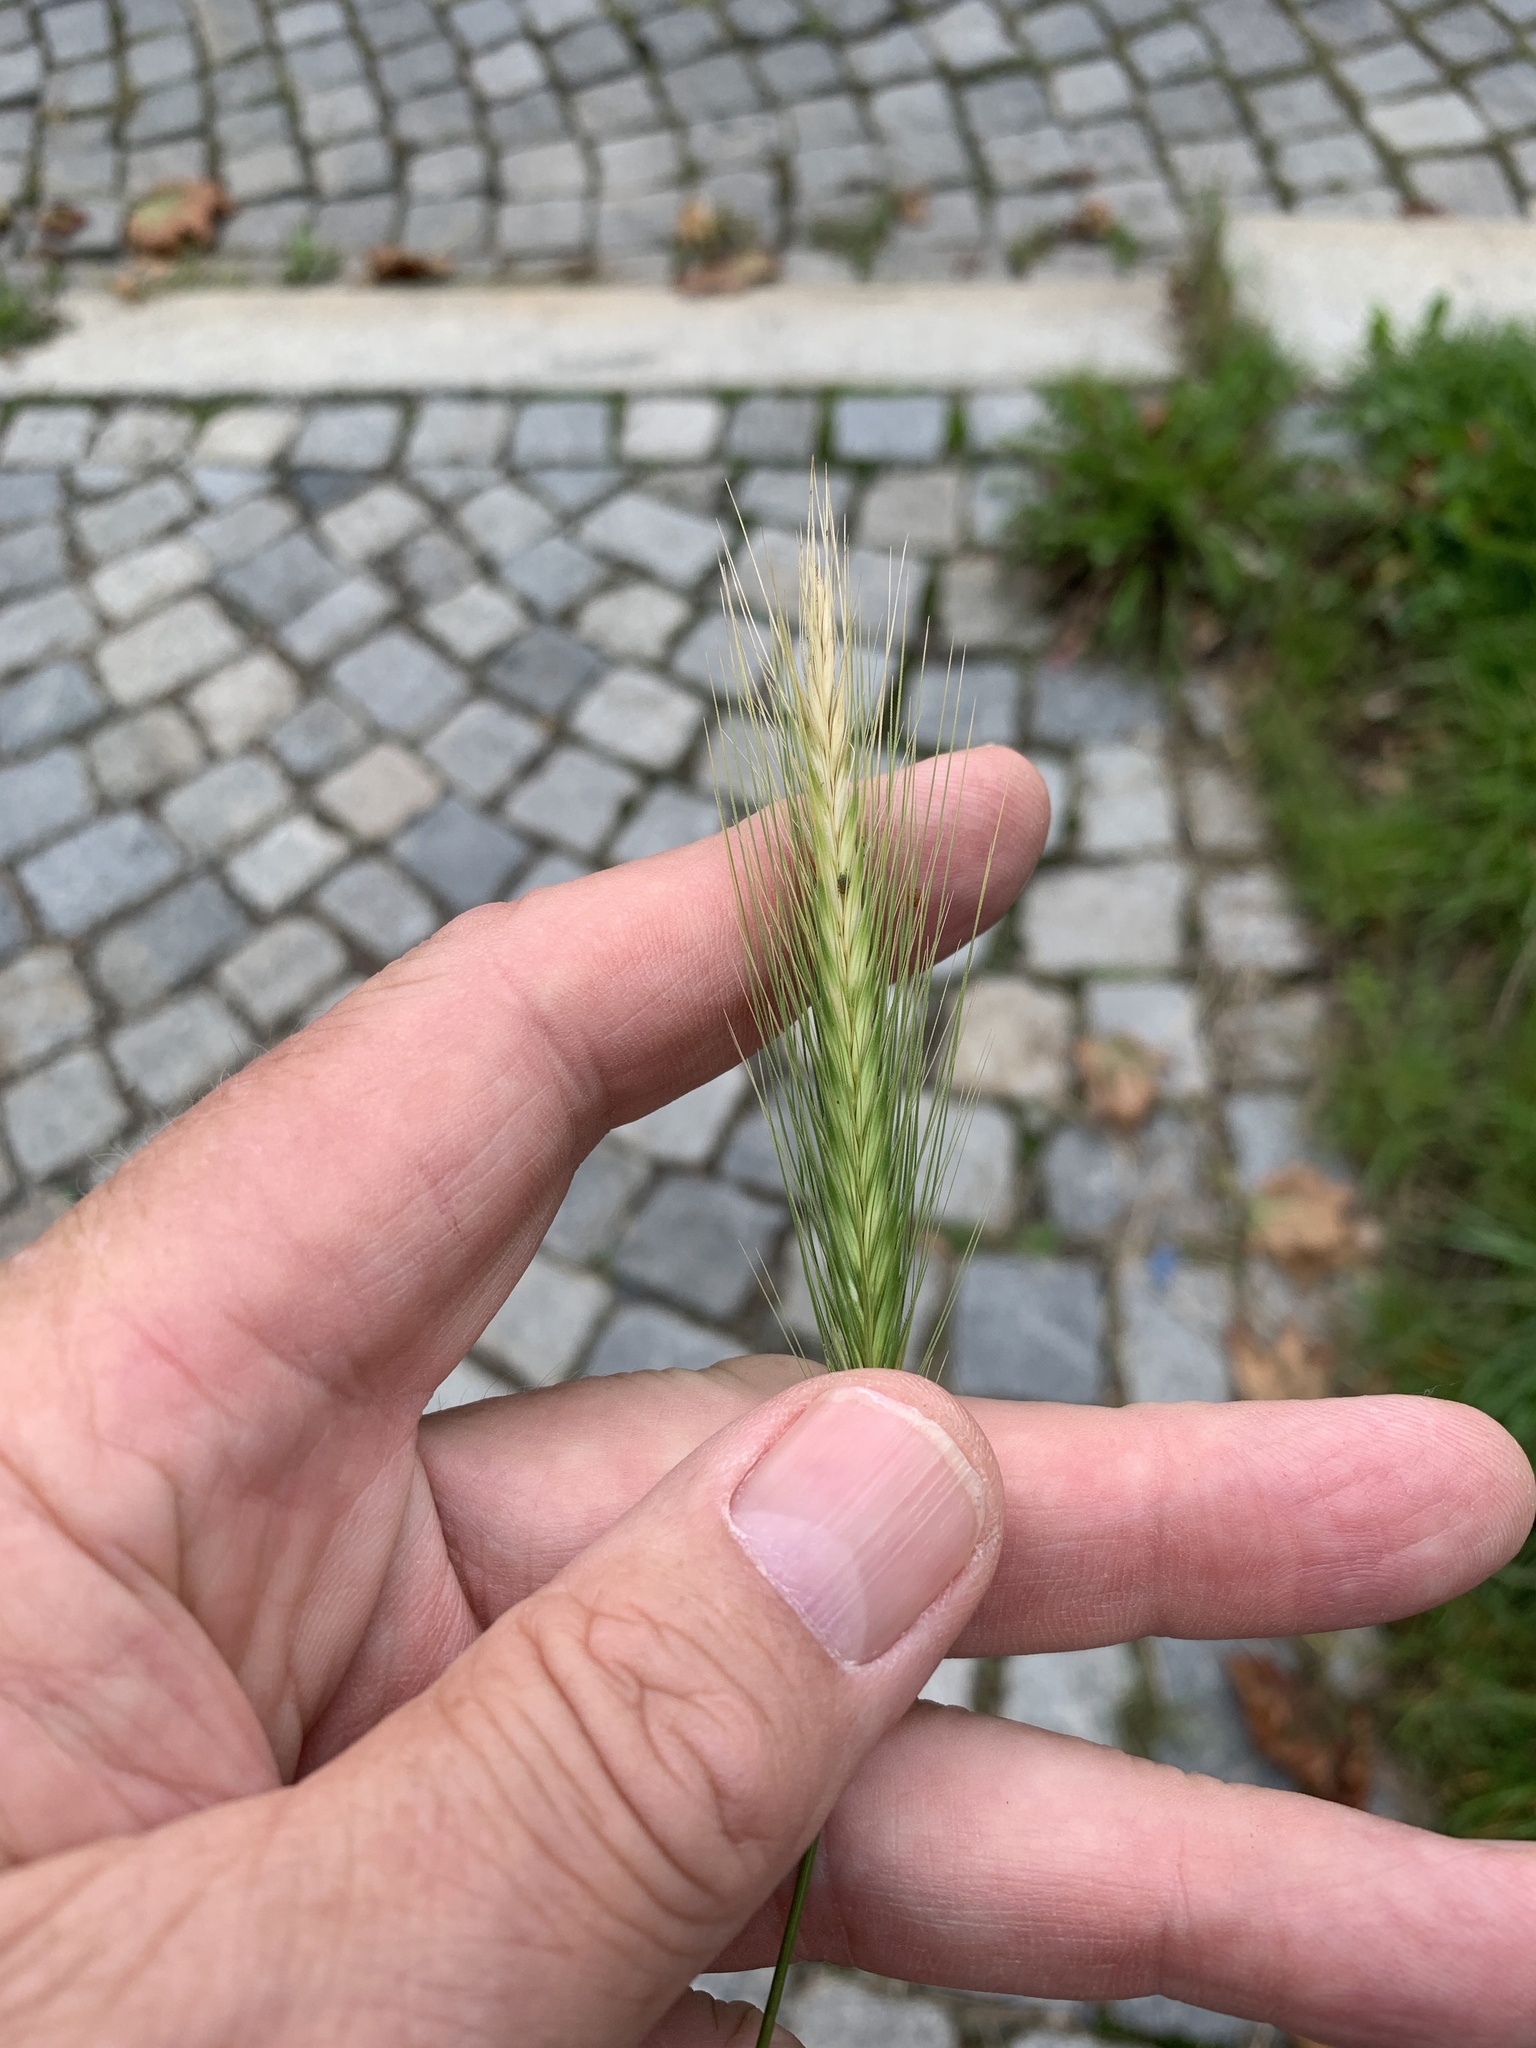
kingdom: Plantae
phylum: Tracheophyta
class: Liliopsida
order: Poales
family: Poaceae
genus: Hordeum
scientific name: Hordeum murinum
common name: Wall barley
